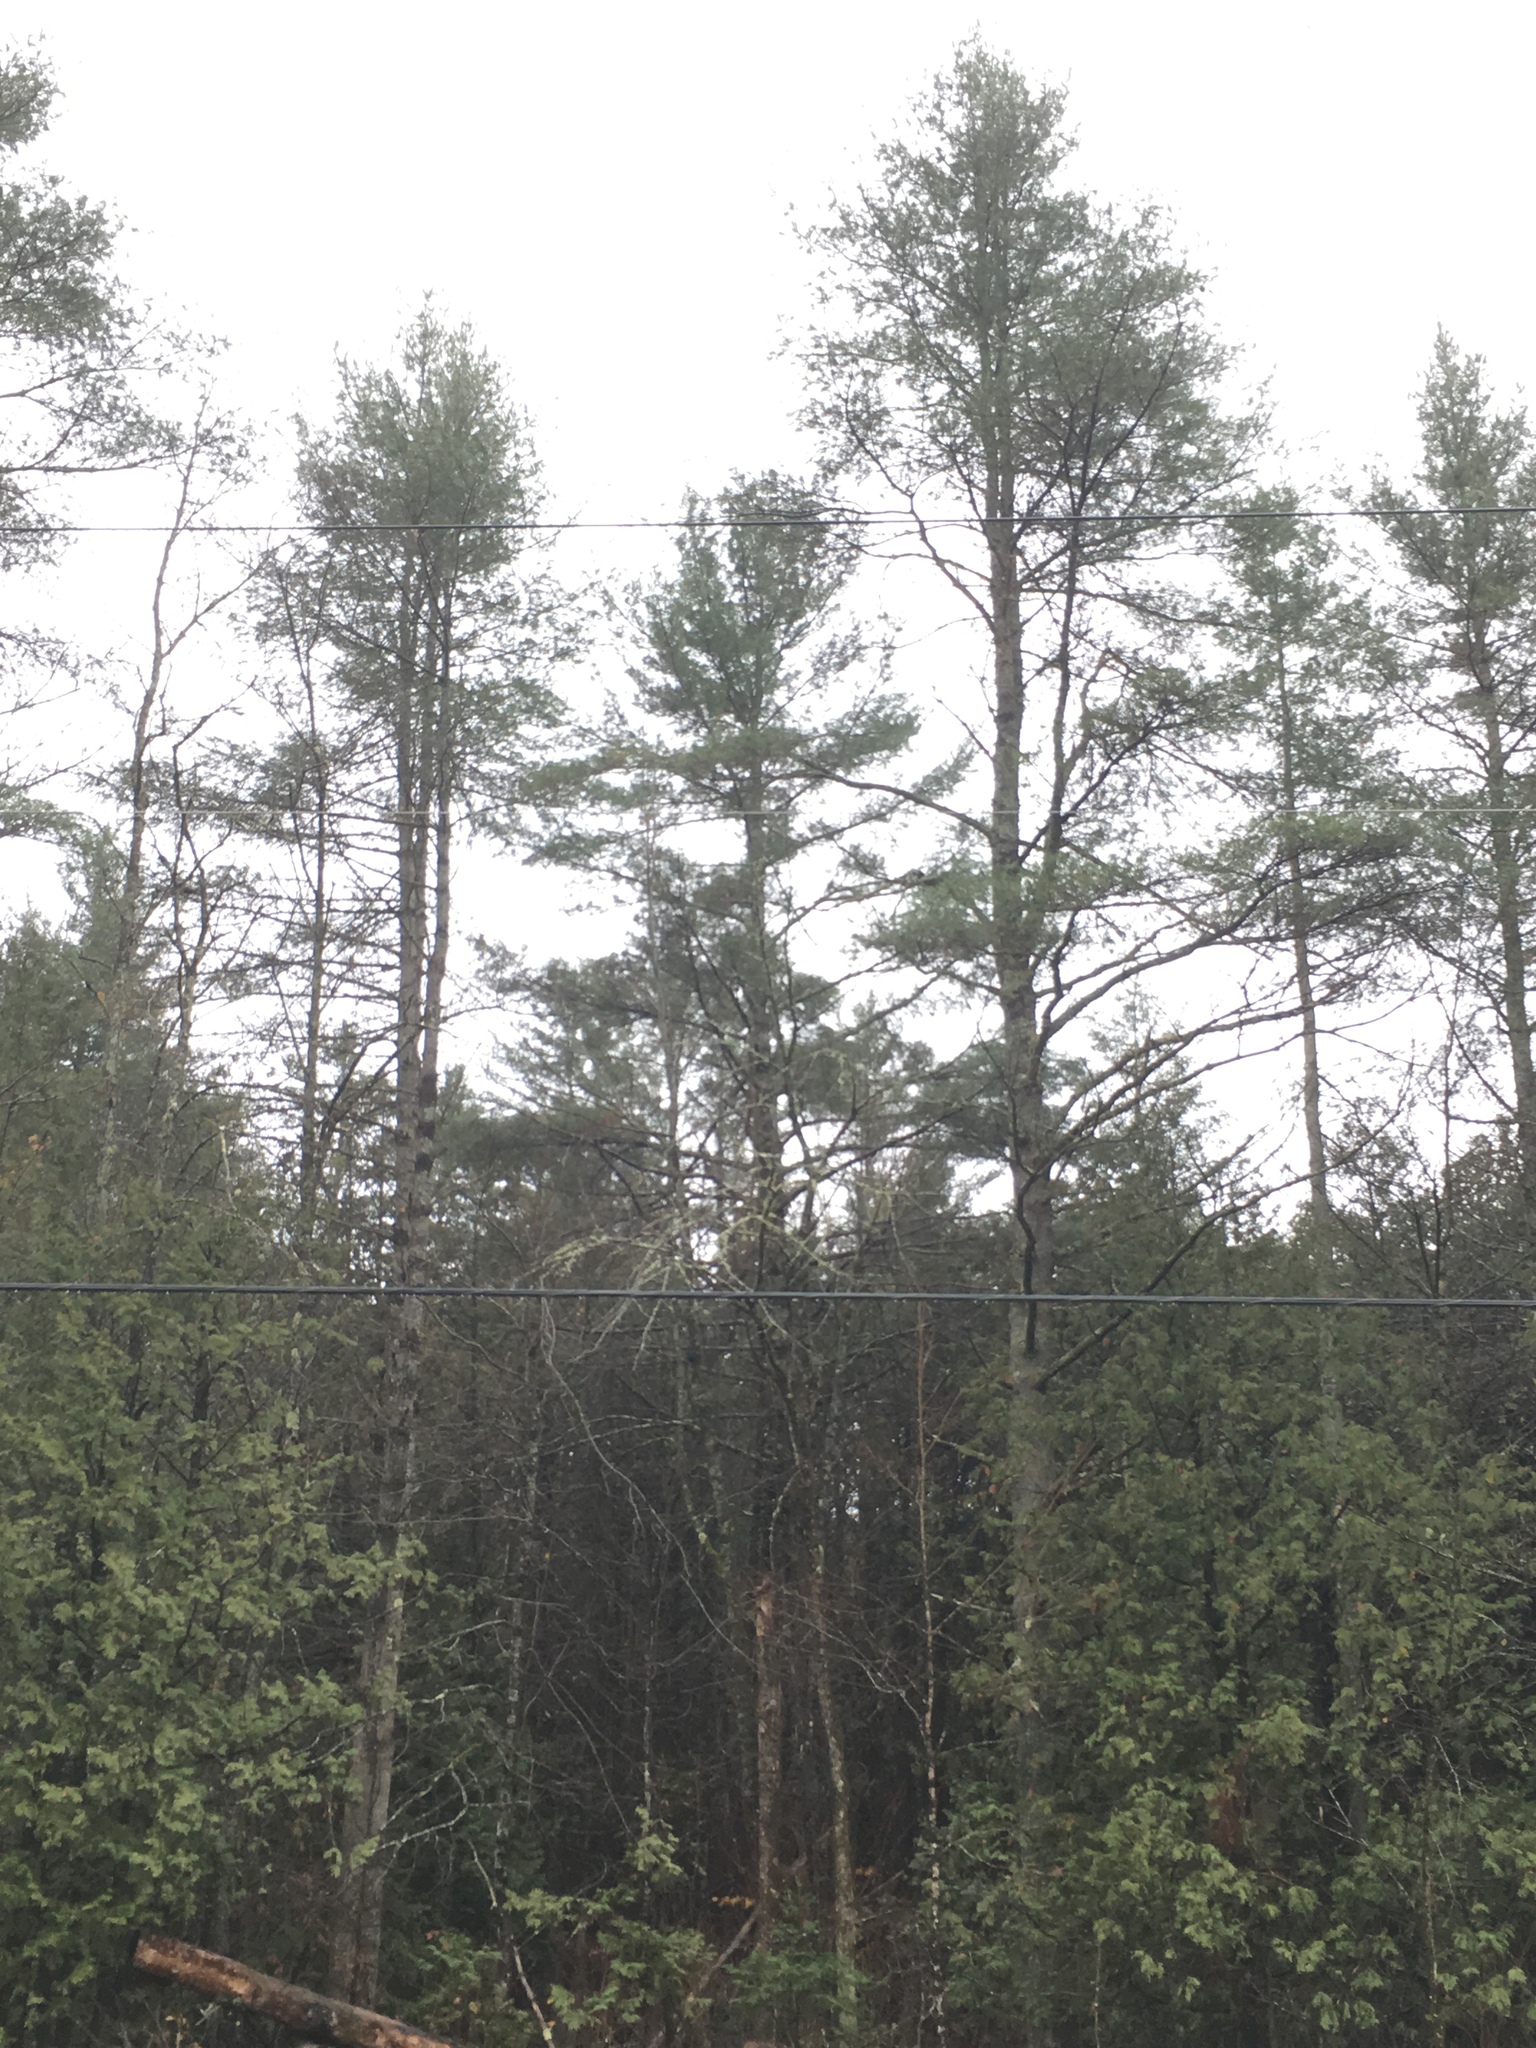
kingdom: Plantae
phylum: Tracheophyta
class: Pinopsida
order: Pinales
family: Pinaceae
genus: Pinus
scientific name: Pinus strobus
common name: Weymouth pine
